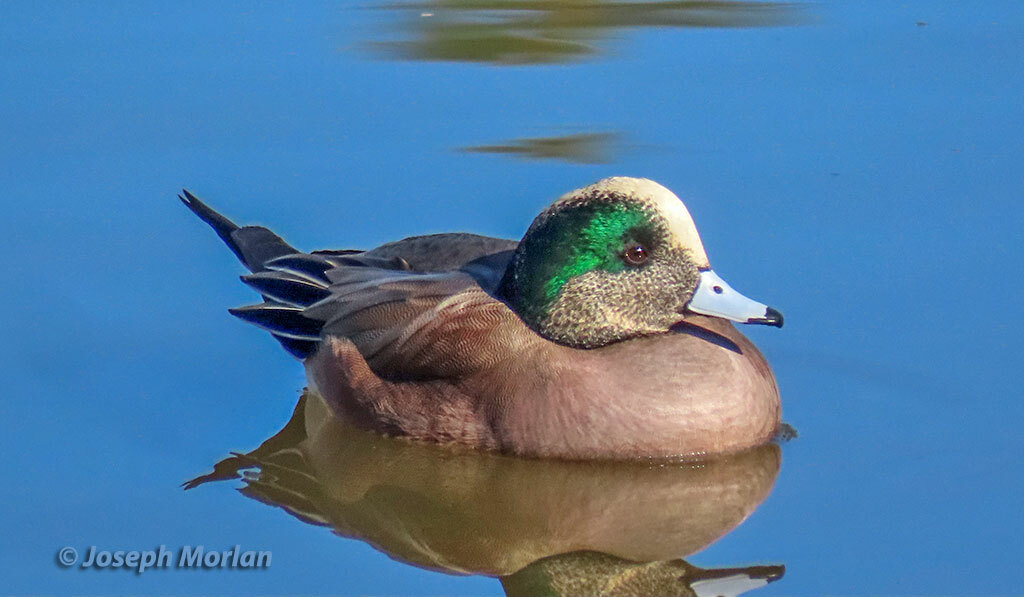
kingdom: Animalia
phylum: Chordata
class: Aves
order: Anseriformes
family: Anatidae
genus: Mareca
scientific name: Mareca americana
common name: American wigeon
